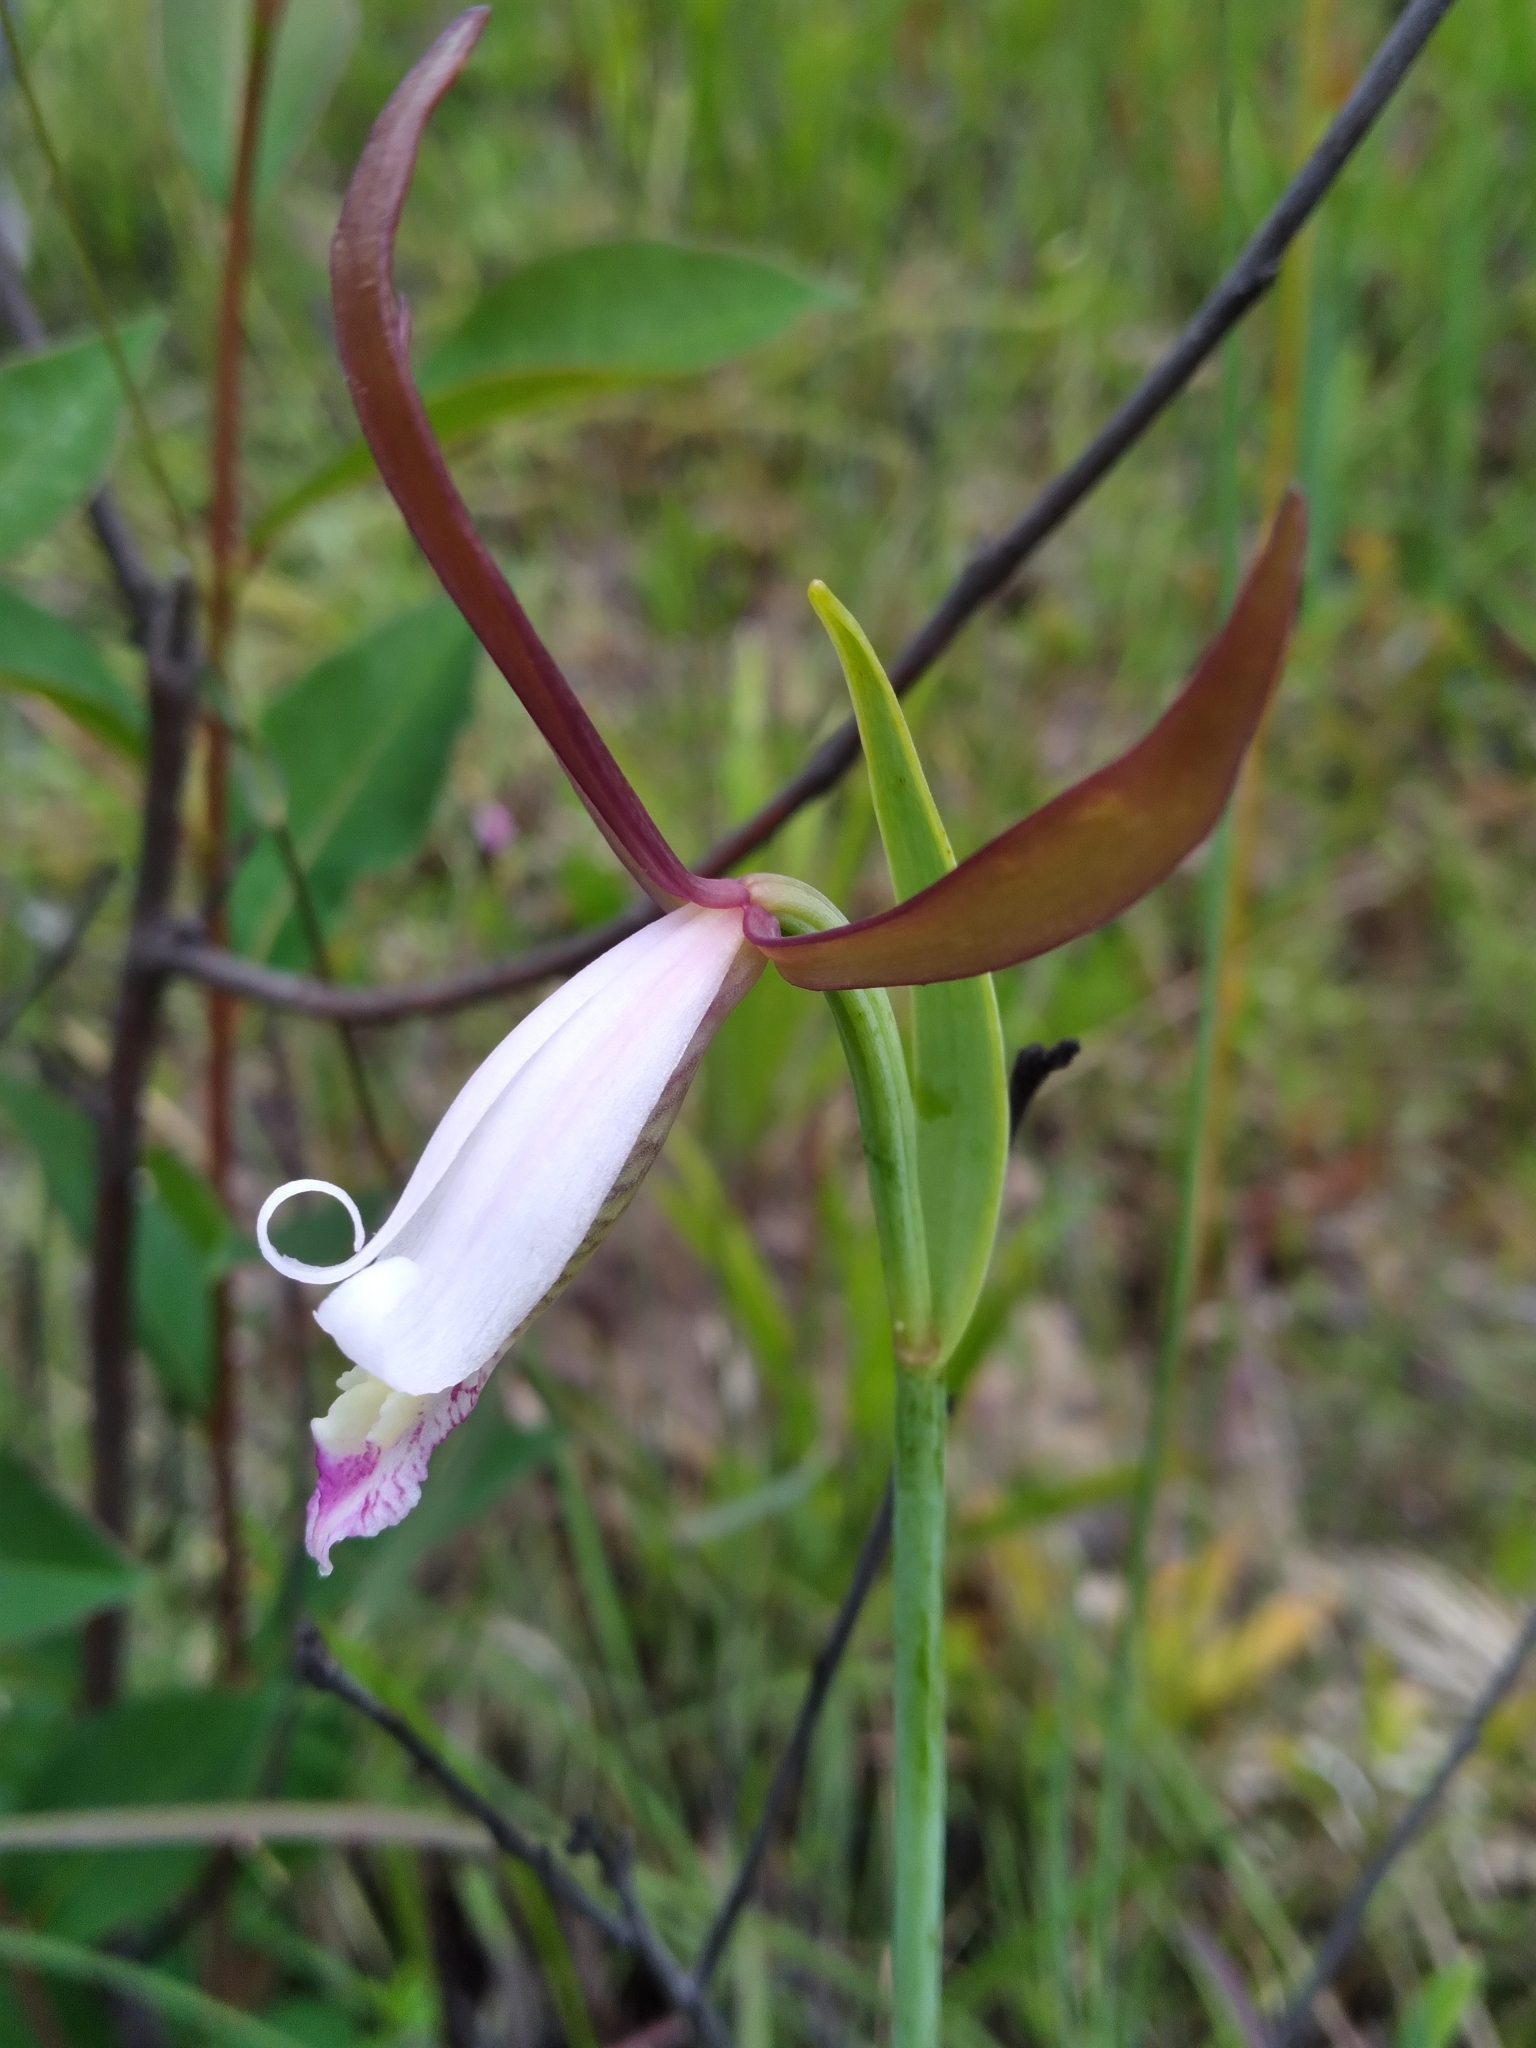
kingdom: Plantae
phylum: Tracheophyta
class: Liliopsida
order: Asparagales
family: Orchidaceae
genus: Cleistesiopsis
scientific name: Cleistesiopsis oricamporum
